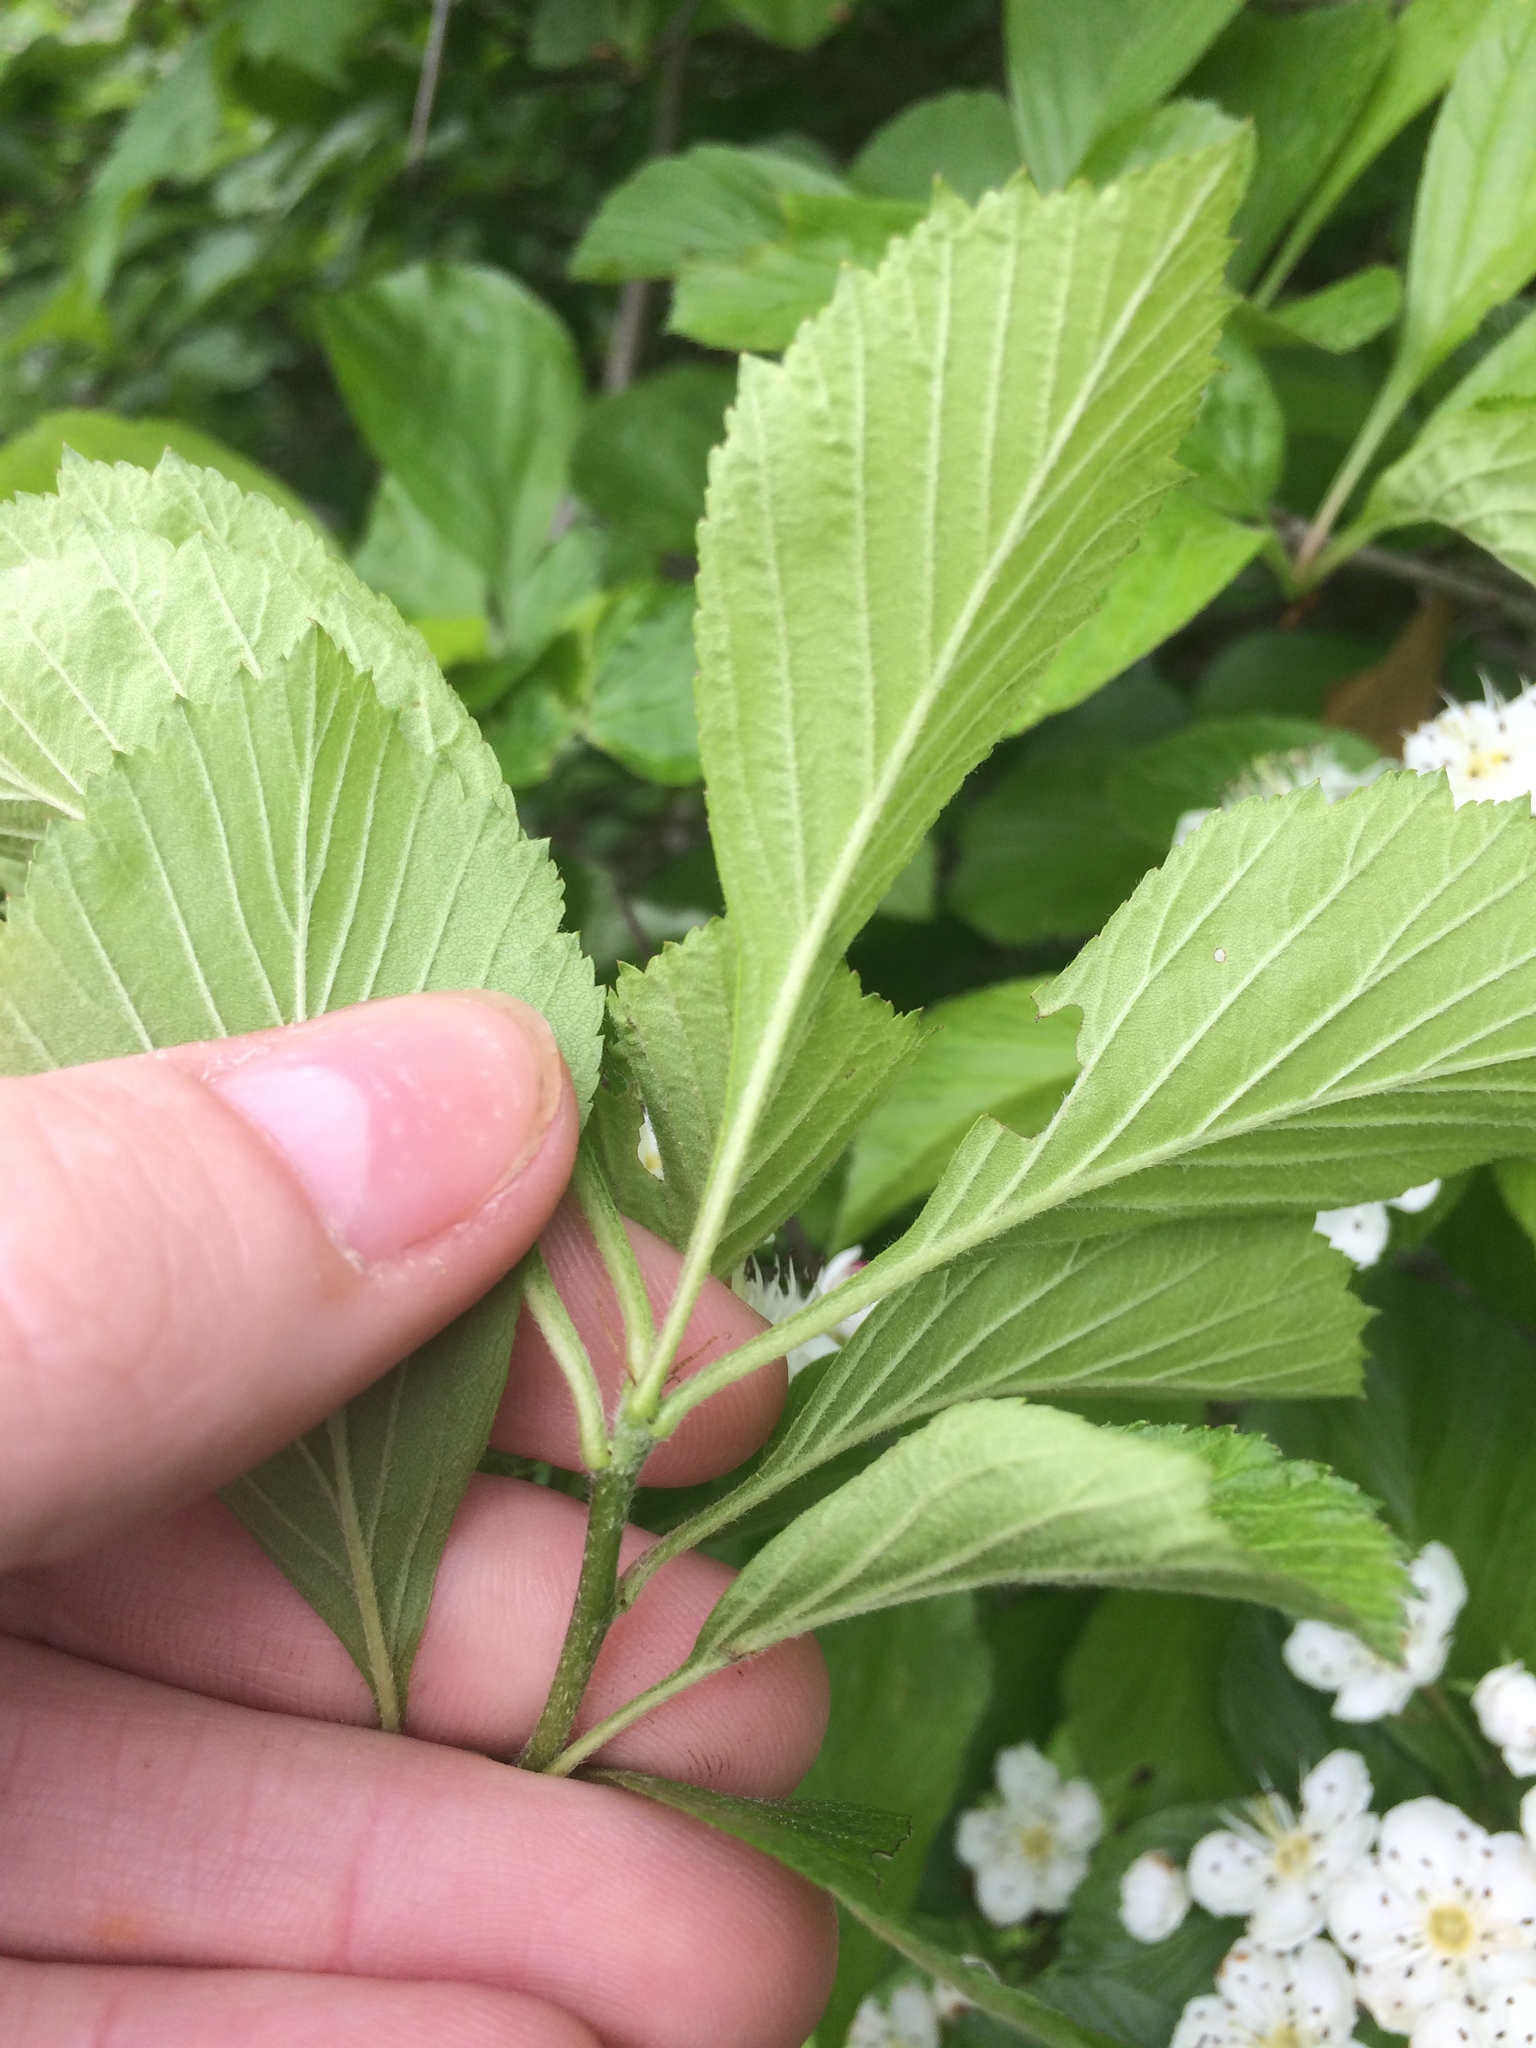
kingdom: Plantae
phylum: Tracheophyta
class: Magnoliopsida
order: Rosales
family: Rosaceae
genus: Crataegus
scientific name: Crataegus punctata
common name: Dotted hawthorn
